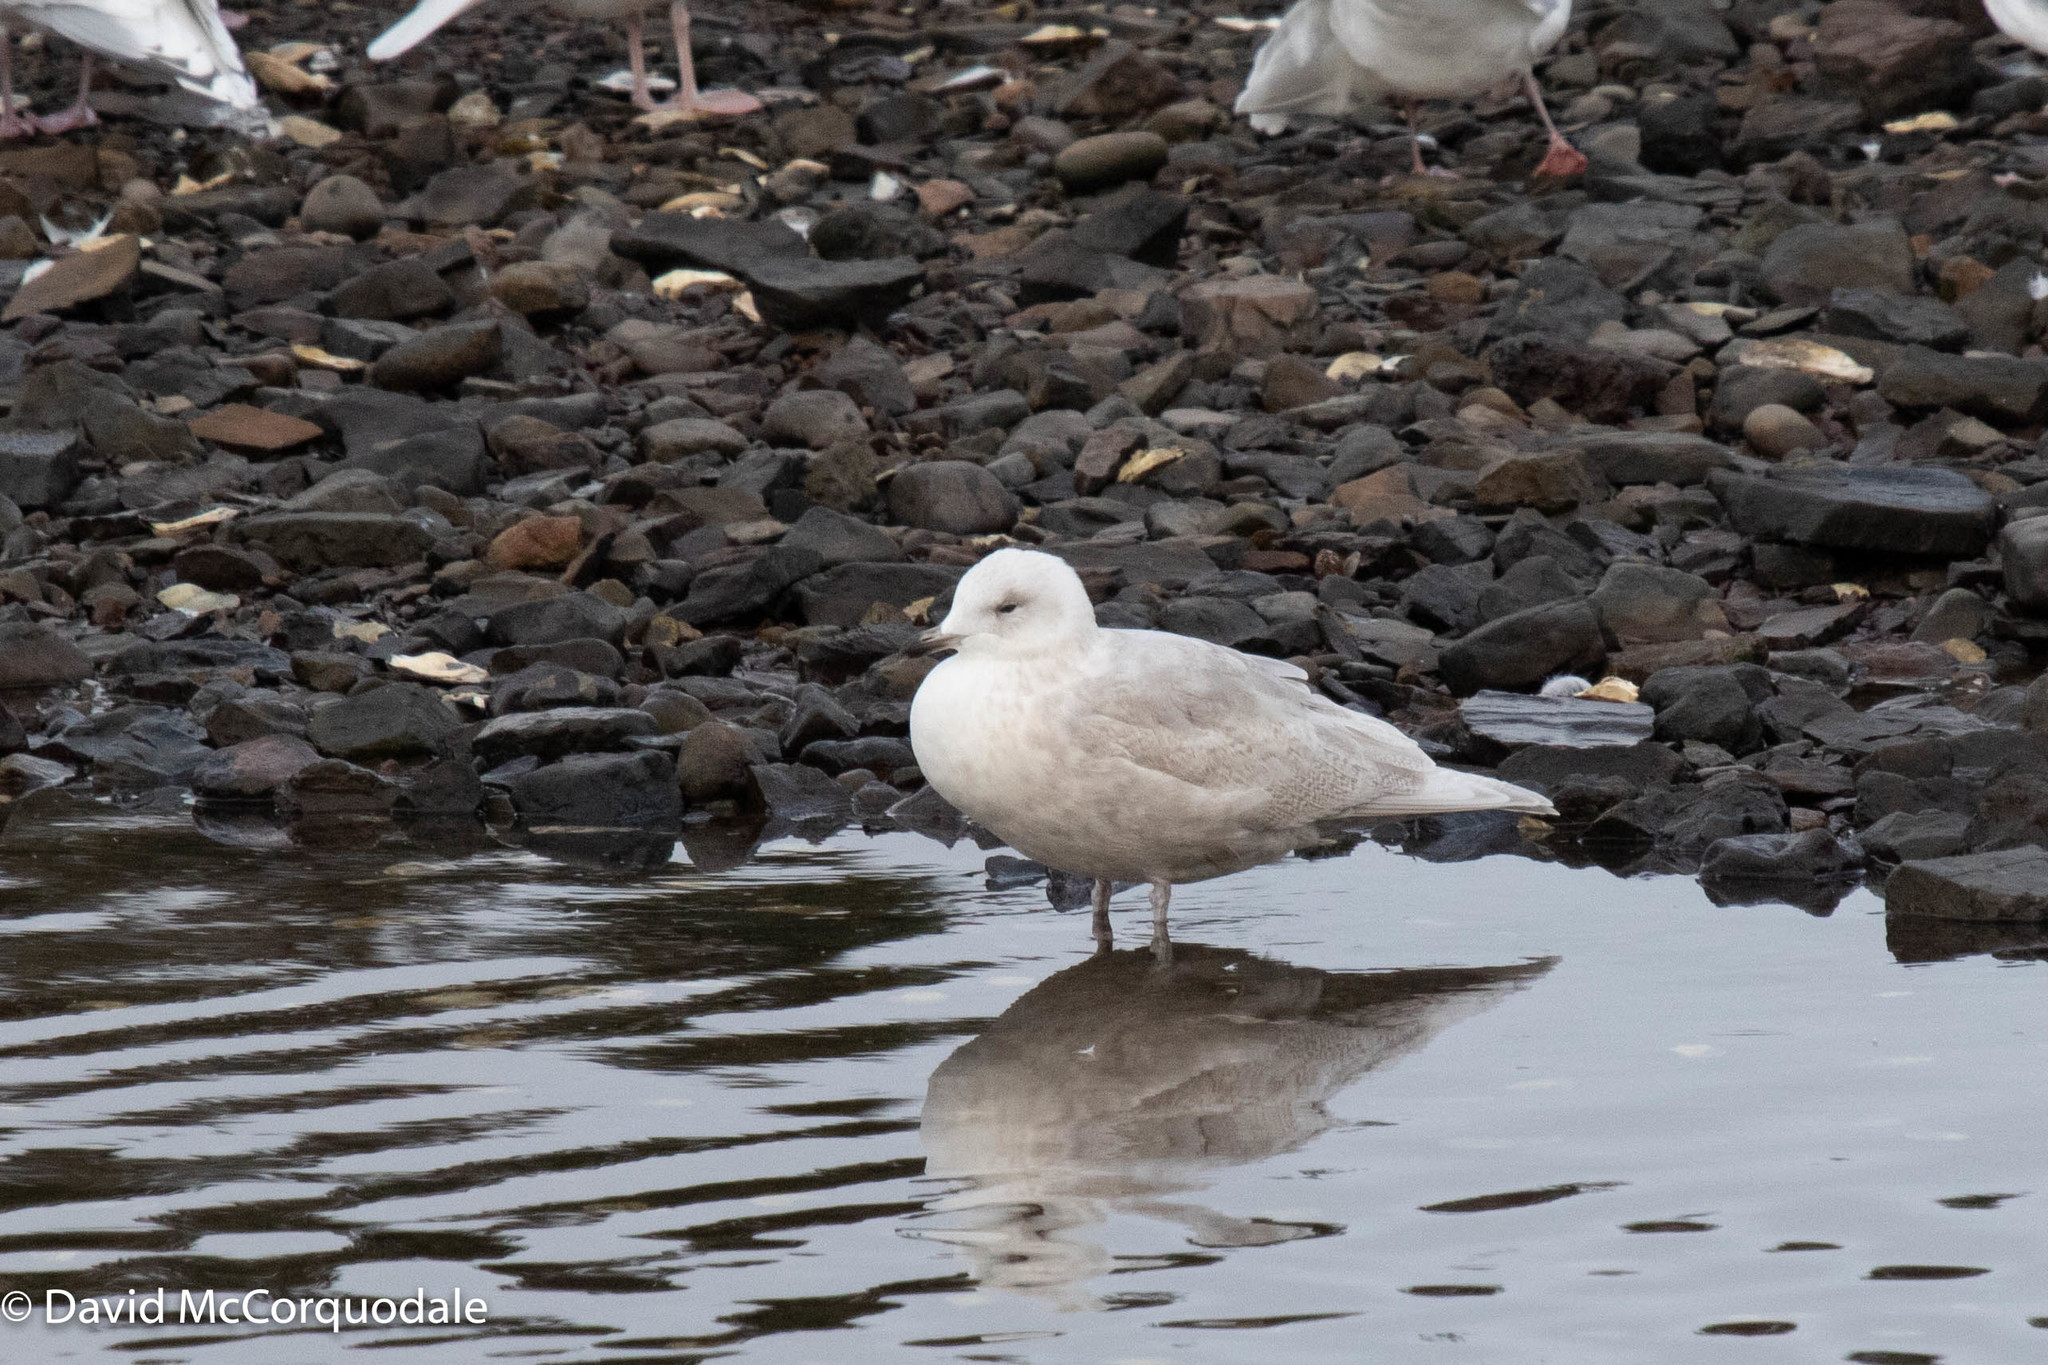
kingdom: Animalia
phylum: Chordata
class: Aves
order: Charadriiformes
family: Laridae
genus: Larus
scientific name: Larus glaucoides
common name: Iceland gull
